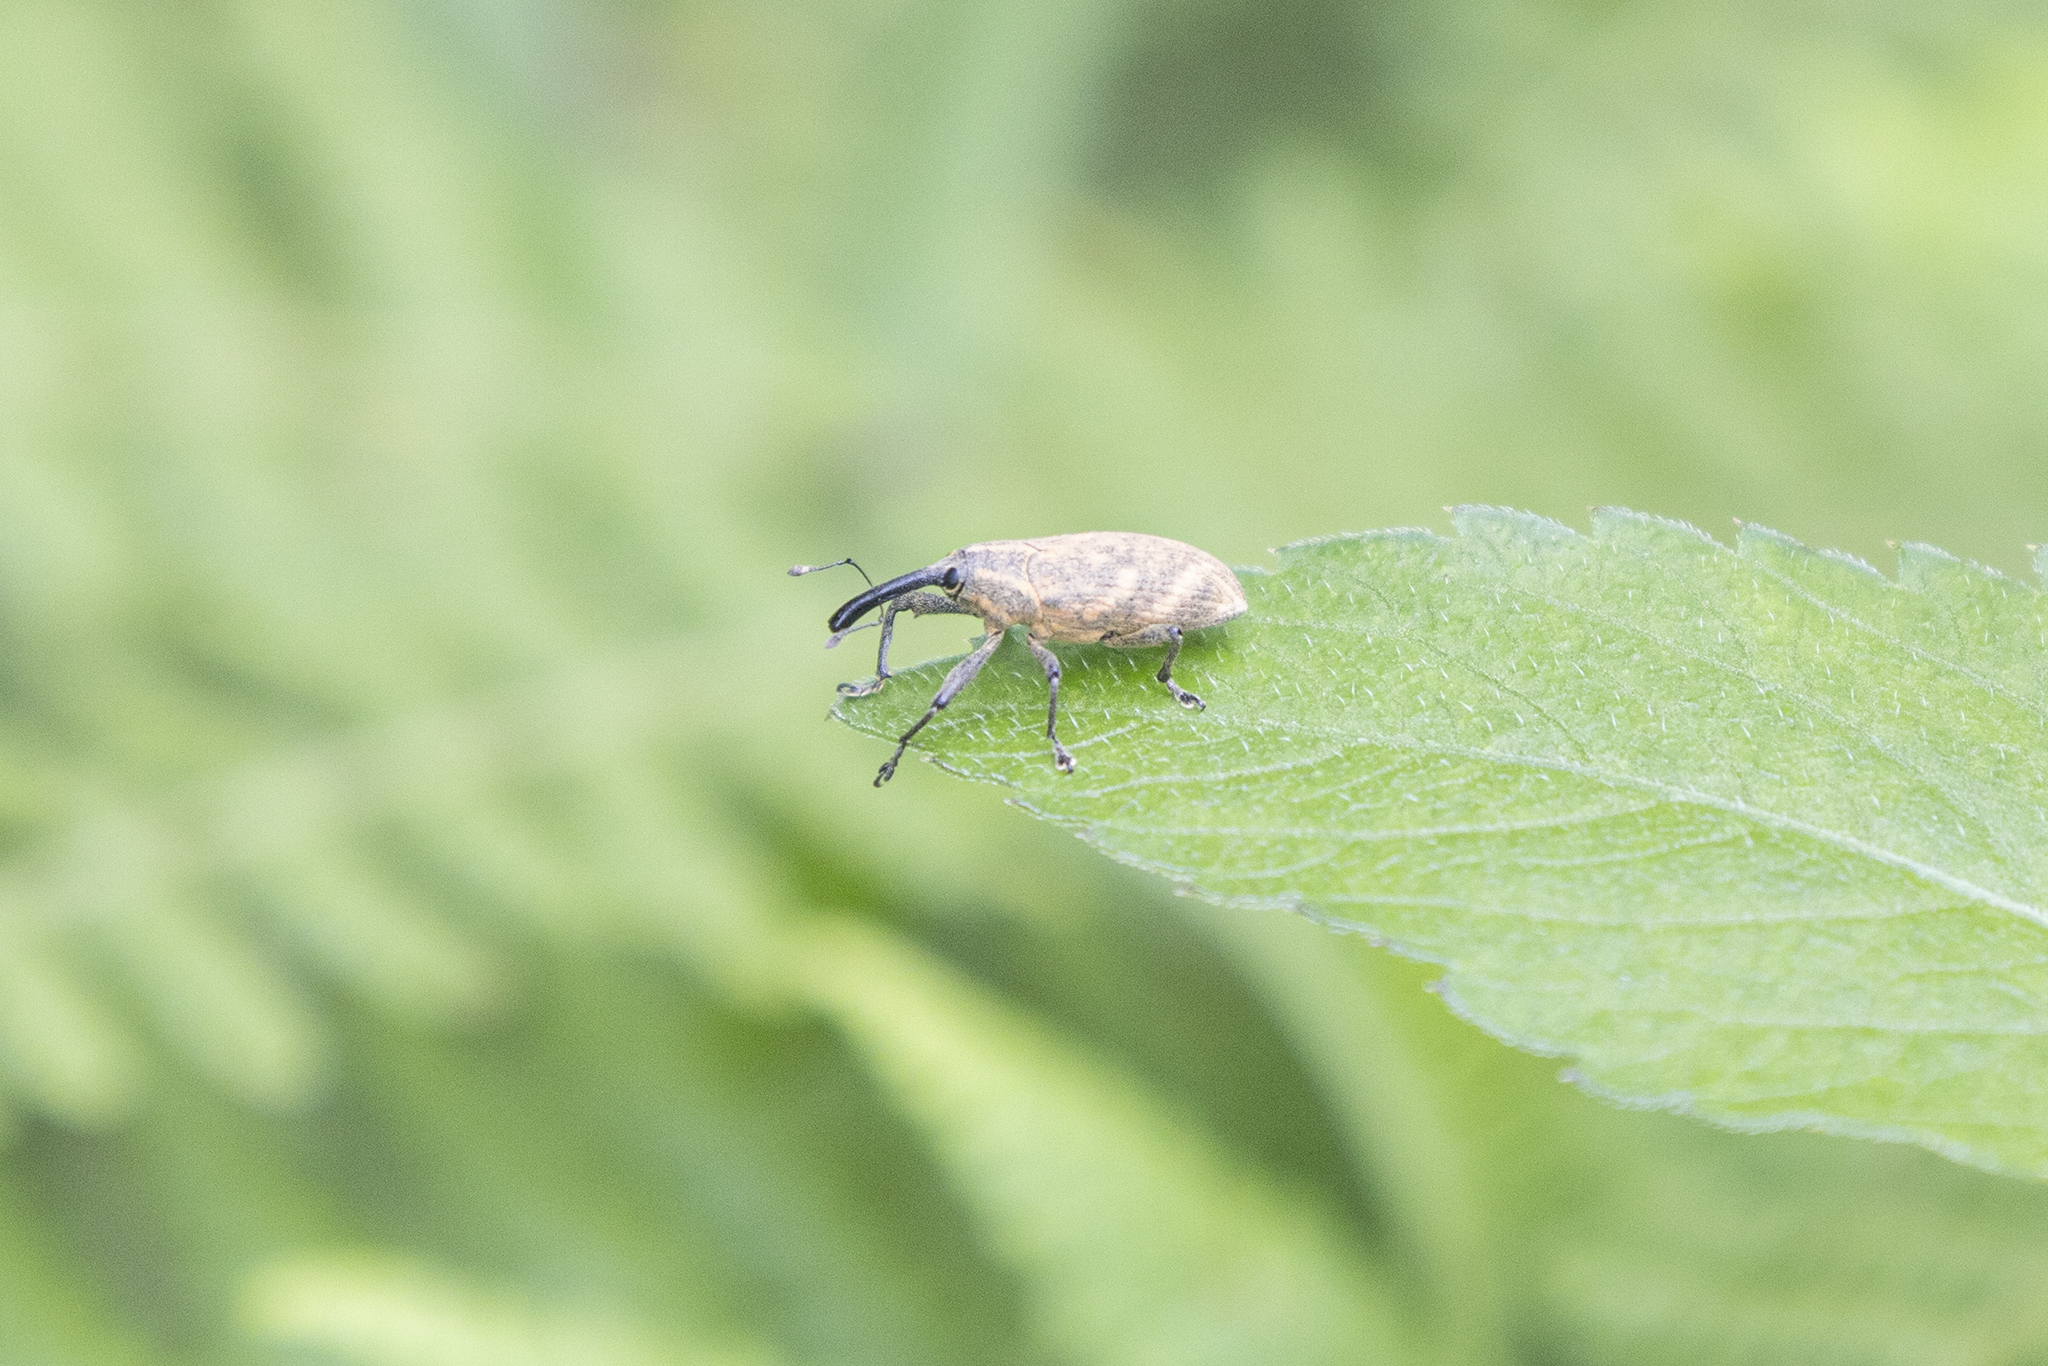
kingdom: Animalia
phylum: Arthropoda
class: Insecta
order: Coleoptera
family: Curculionidae
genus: Merus
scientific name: Merus
